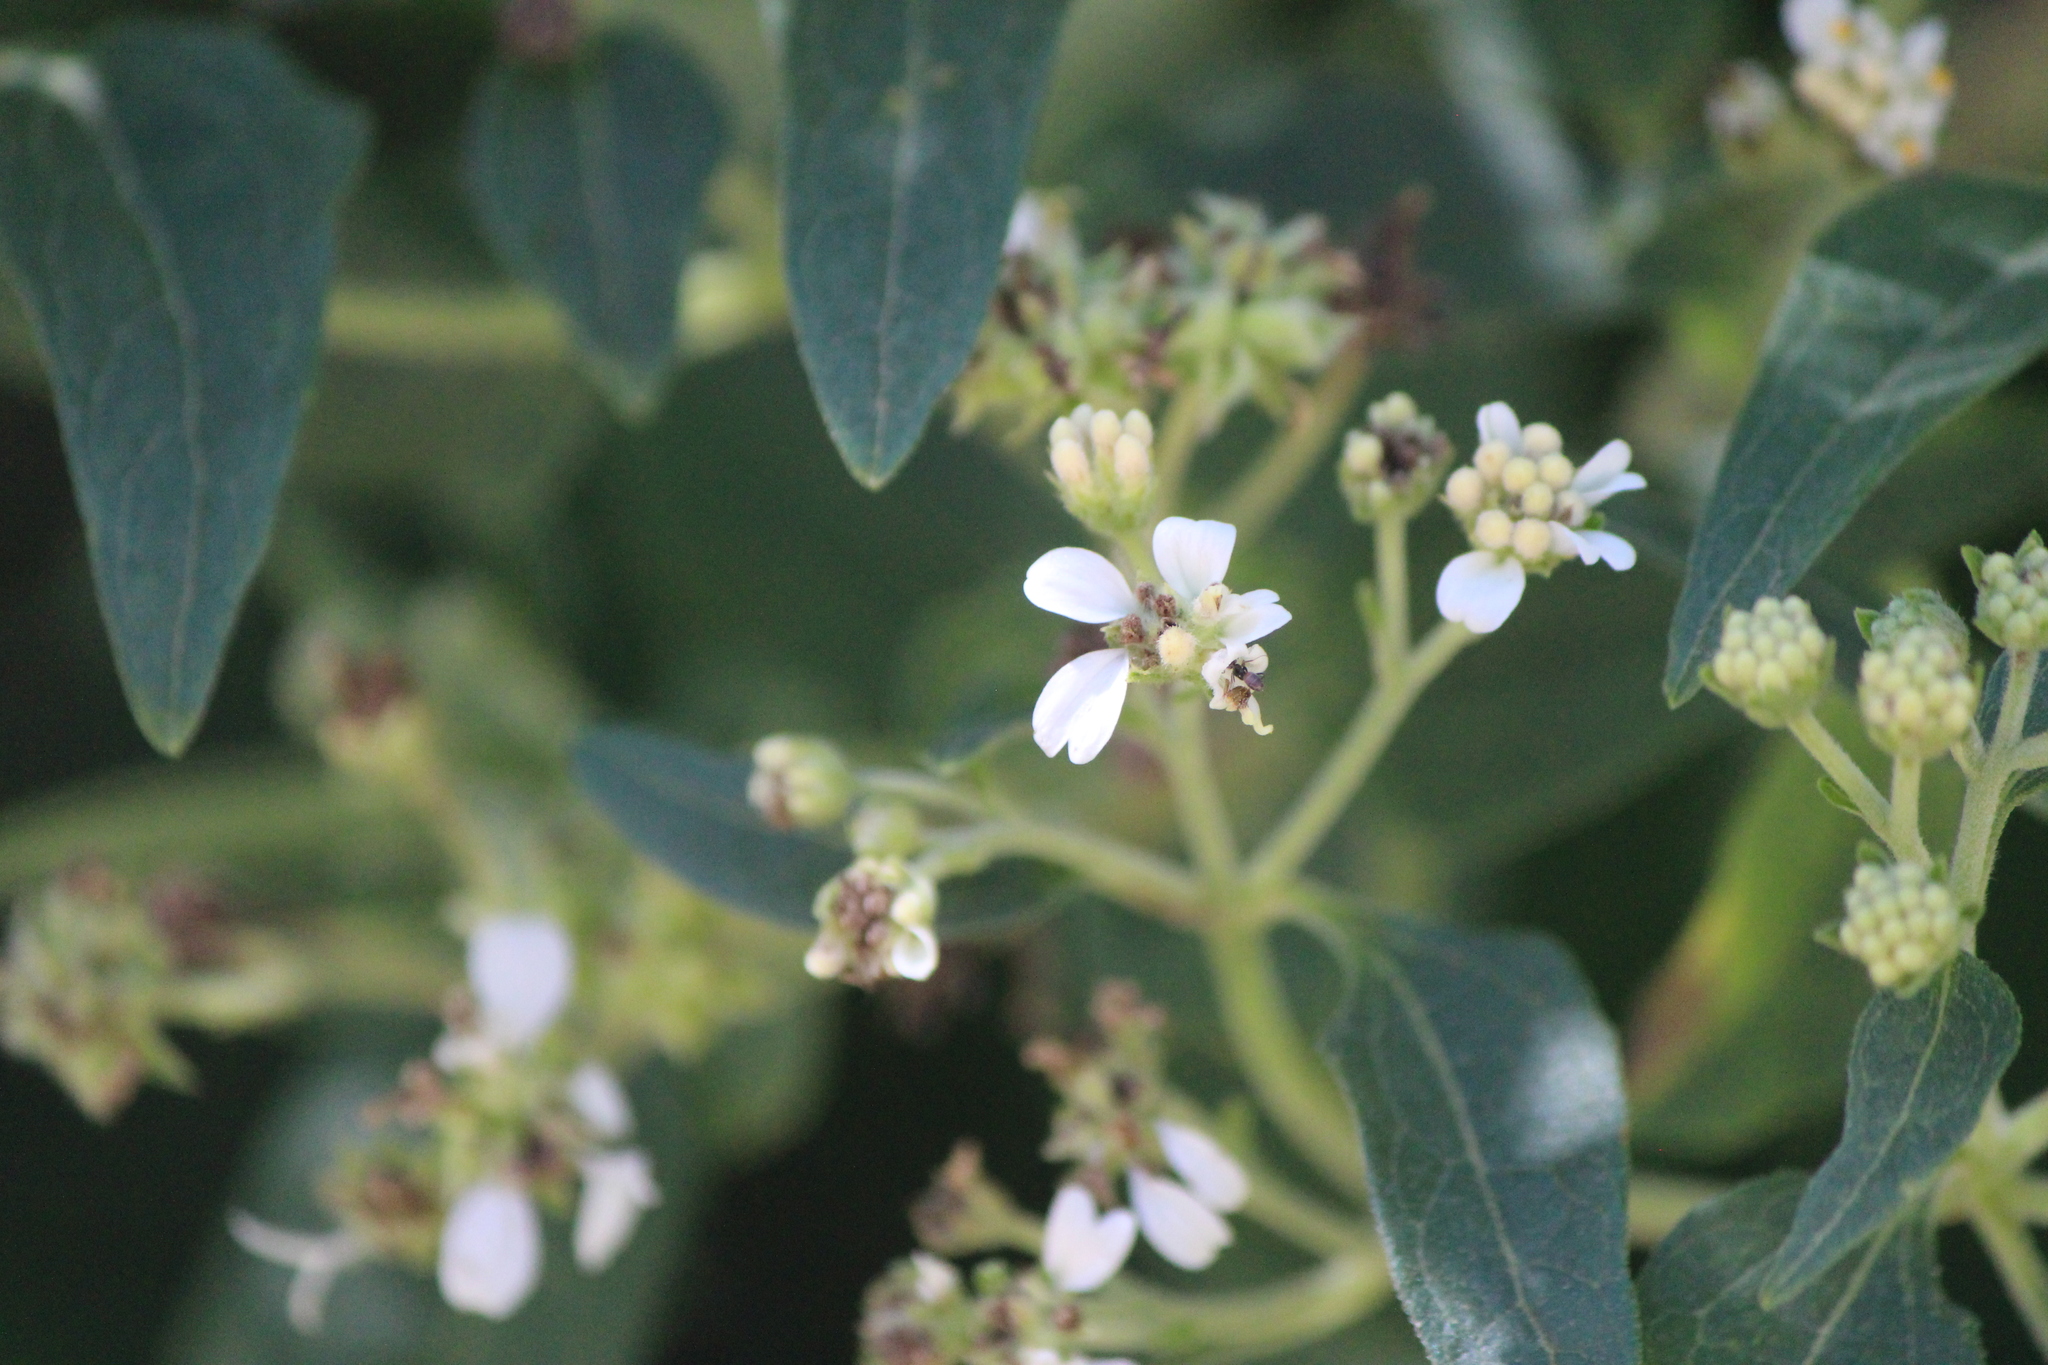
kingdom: Plantae
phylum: Tracheophyta
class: Magnoliopsida
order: Asterales
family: Asteraceae
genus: Montanoa
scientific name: Montanoa tomentosa
